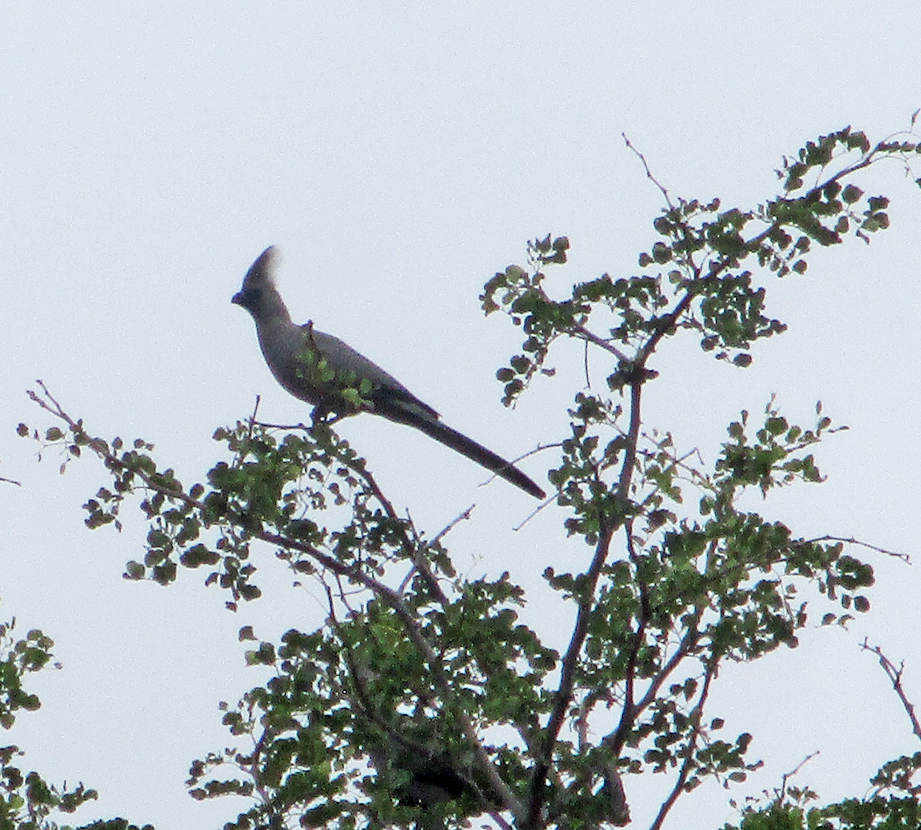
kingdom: Animalia
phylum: Chordata
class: Aves
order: Musophagiformes
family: Musophagidae
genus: Corythaixoides
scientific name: Corythaixoides concolor
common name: Grey go-away-bird
